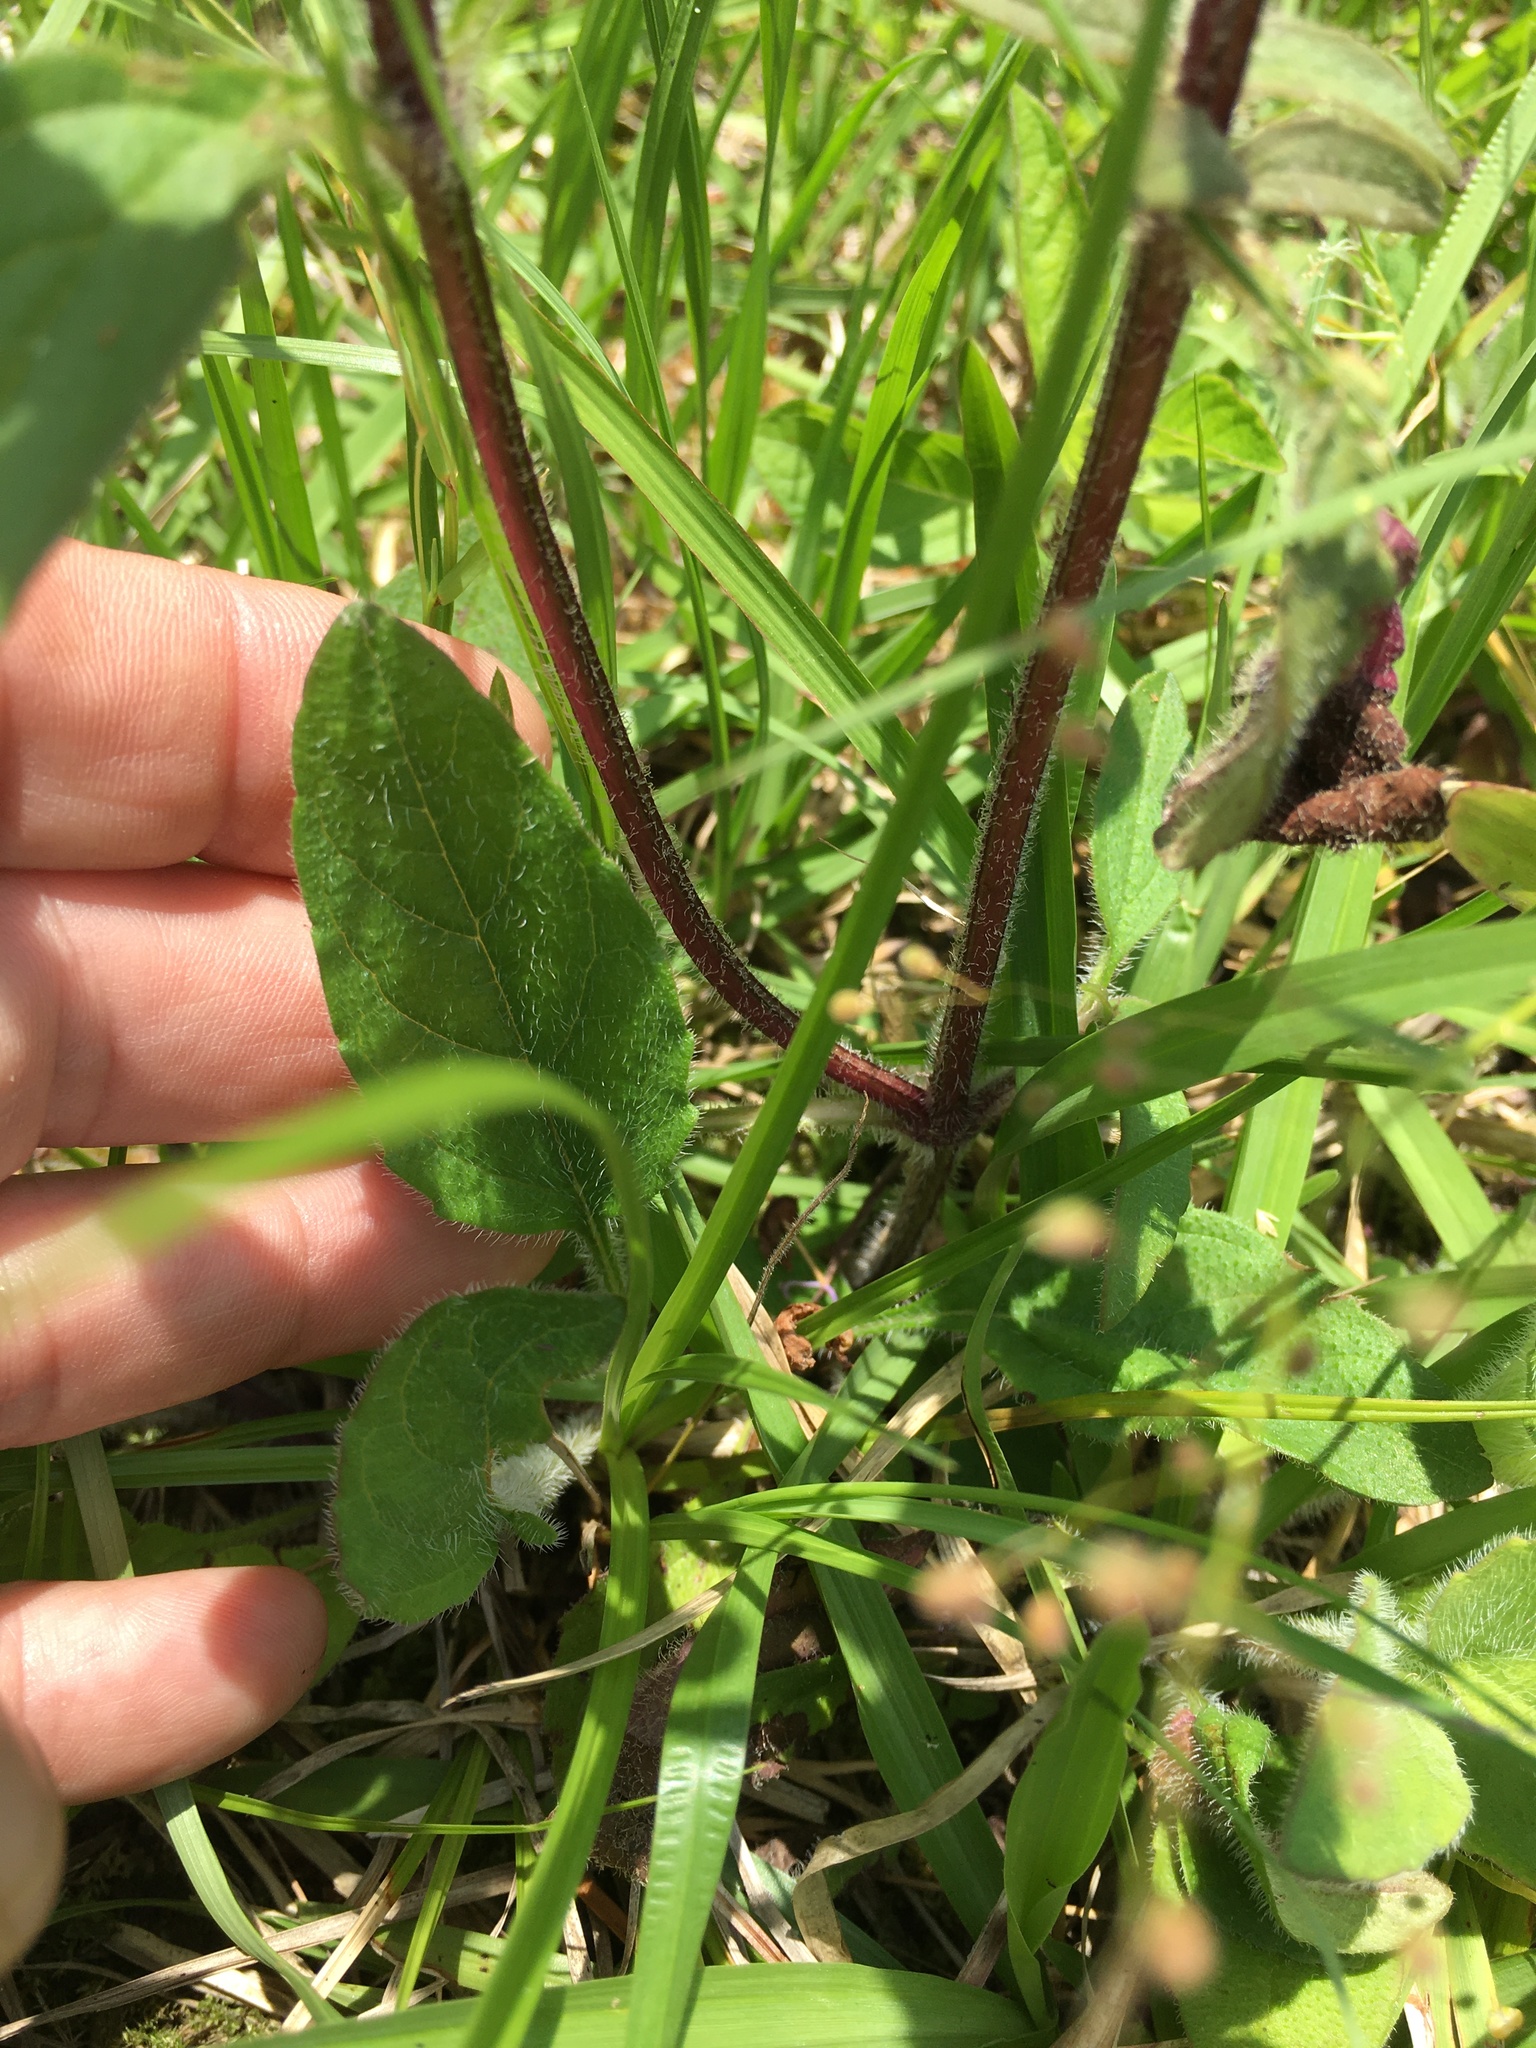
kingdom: Plantae
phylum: Tracheophyta
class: Magnoliopsida
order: Lamiales
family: Lamiaceae
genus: Prunella
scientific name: Prunella vulgaris
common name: Heal-all
